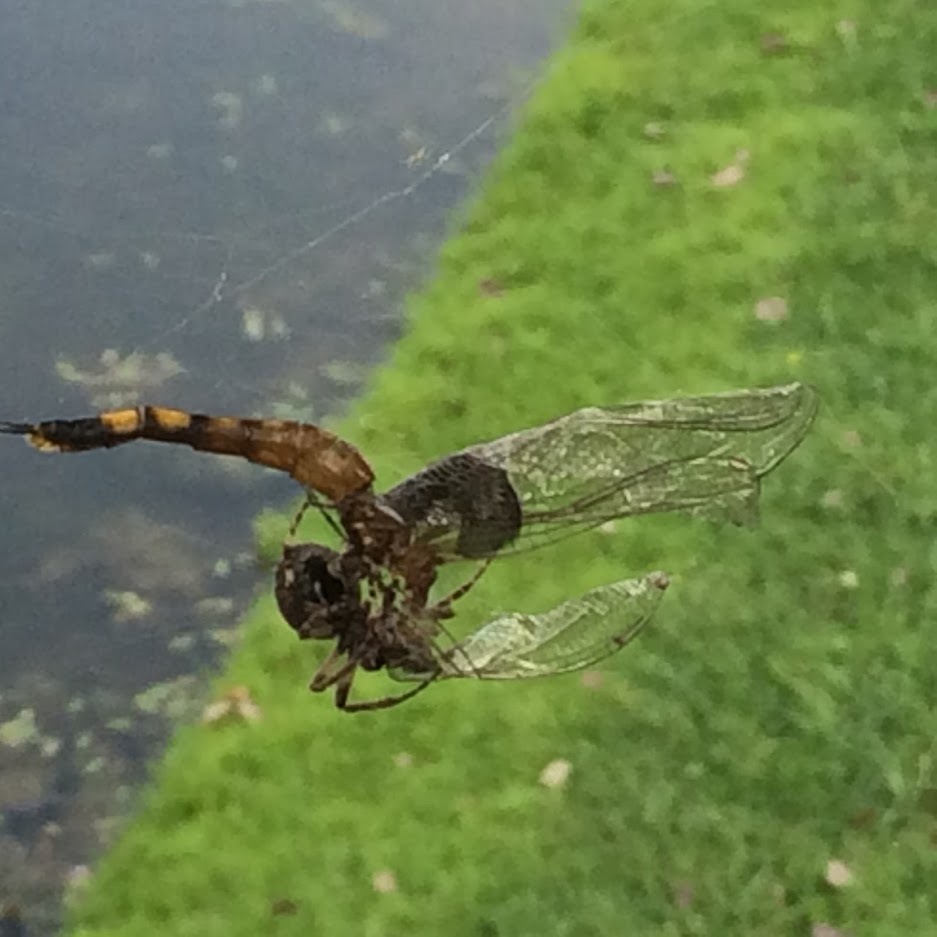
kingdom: Animalia
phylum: Arthropoda
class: Insecta
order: Odonata
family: Libellulidae
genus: Tramea
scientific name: Tramea lacerata
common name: Black saddlebags
